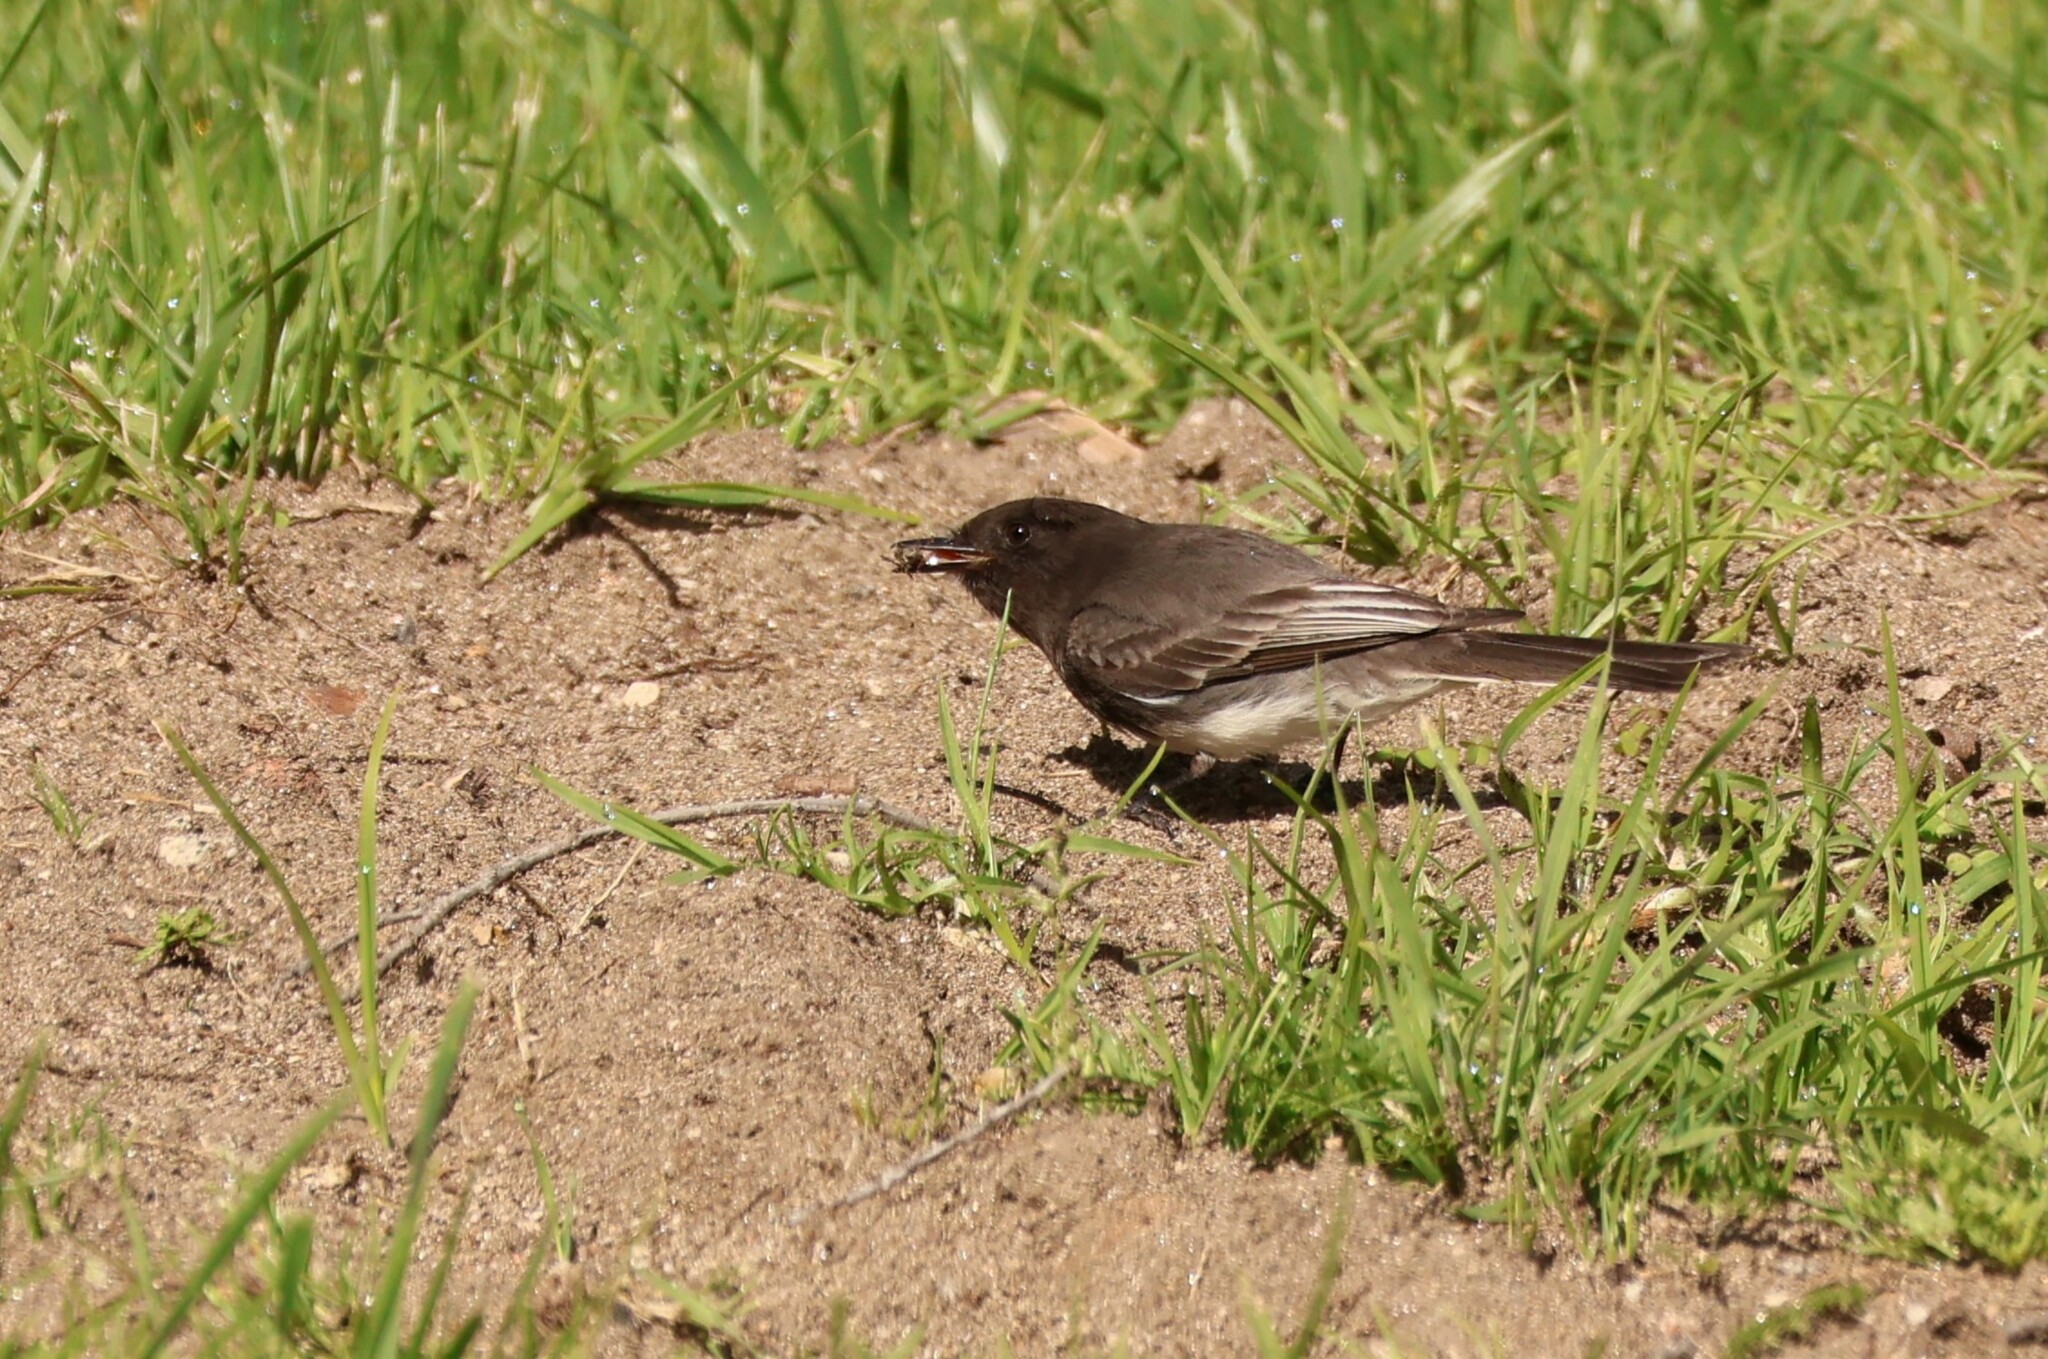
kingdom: Animalia
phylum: Chordata
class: Aves
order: Passeriformes
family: Tyrannidae
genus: Sayornis
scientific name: Sayornis nigricans
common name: Black phoebe
